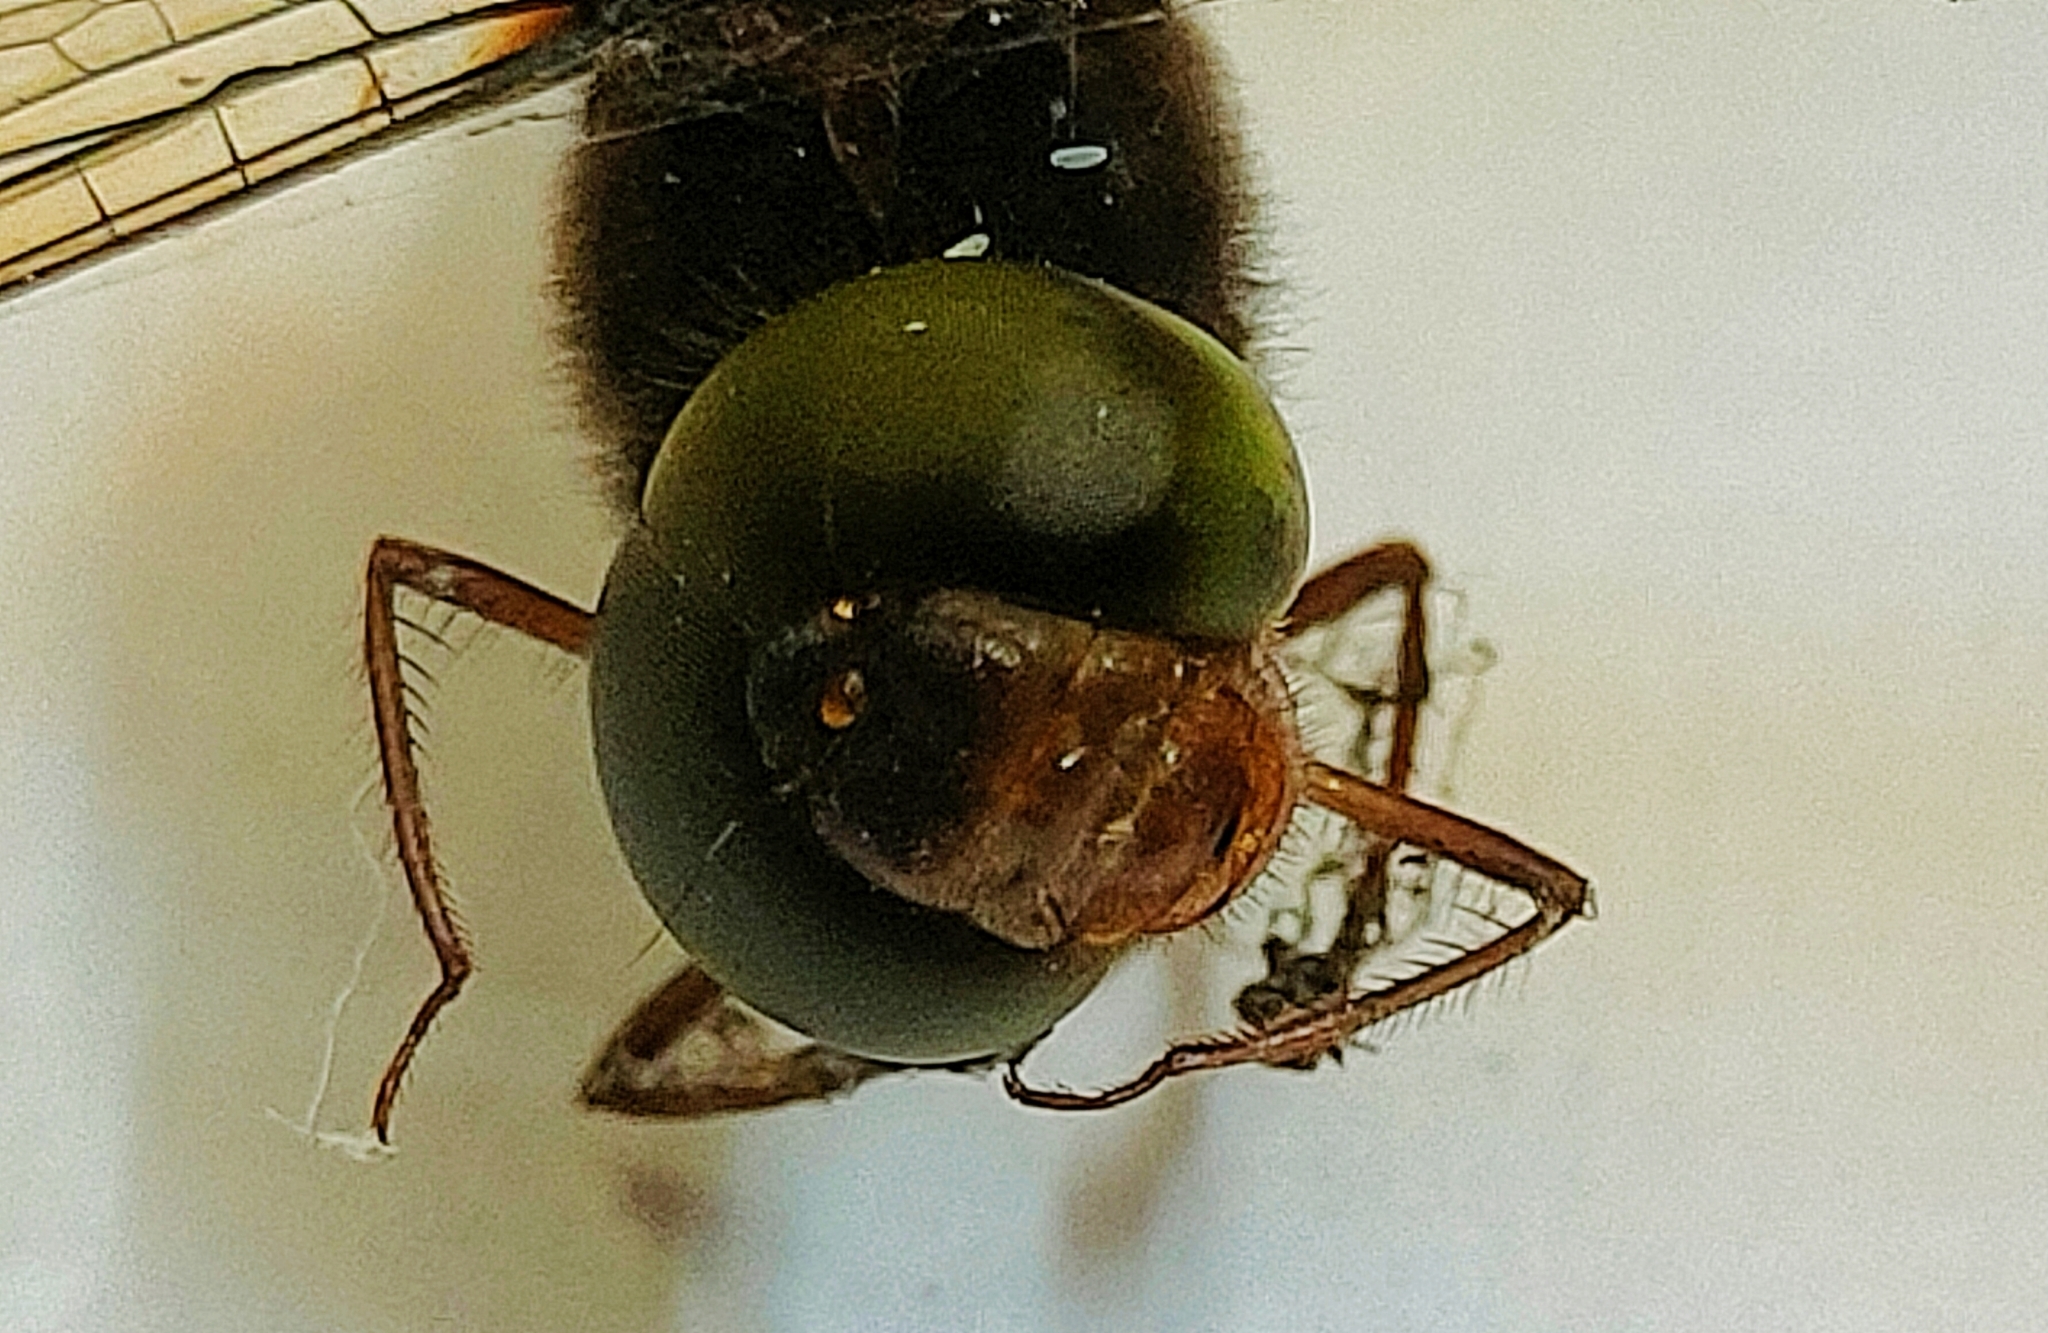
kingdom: Animalia
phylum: Arthropoda
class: Insecta
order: Odonata
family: Libellulidae
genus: Zyxomma
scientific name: Zyxomma petiolatum
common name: Dingy dusk-darter
